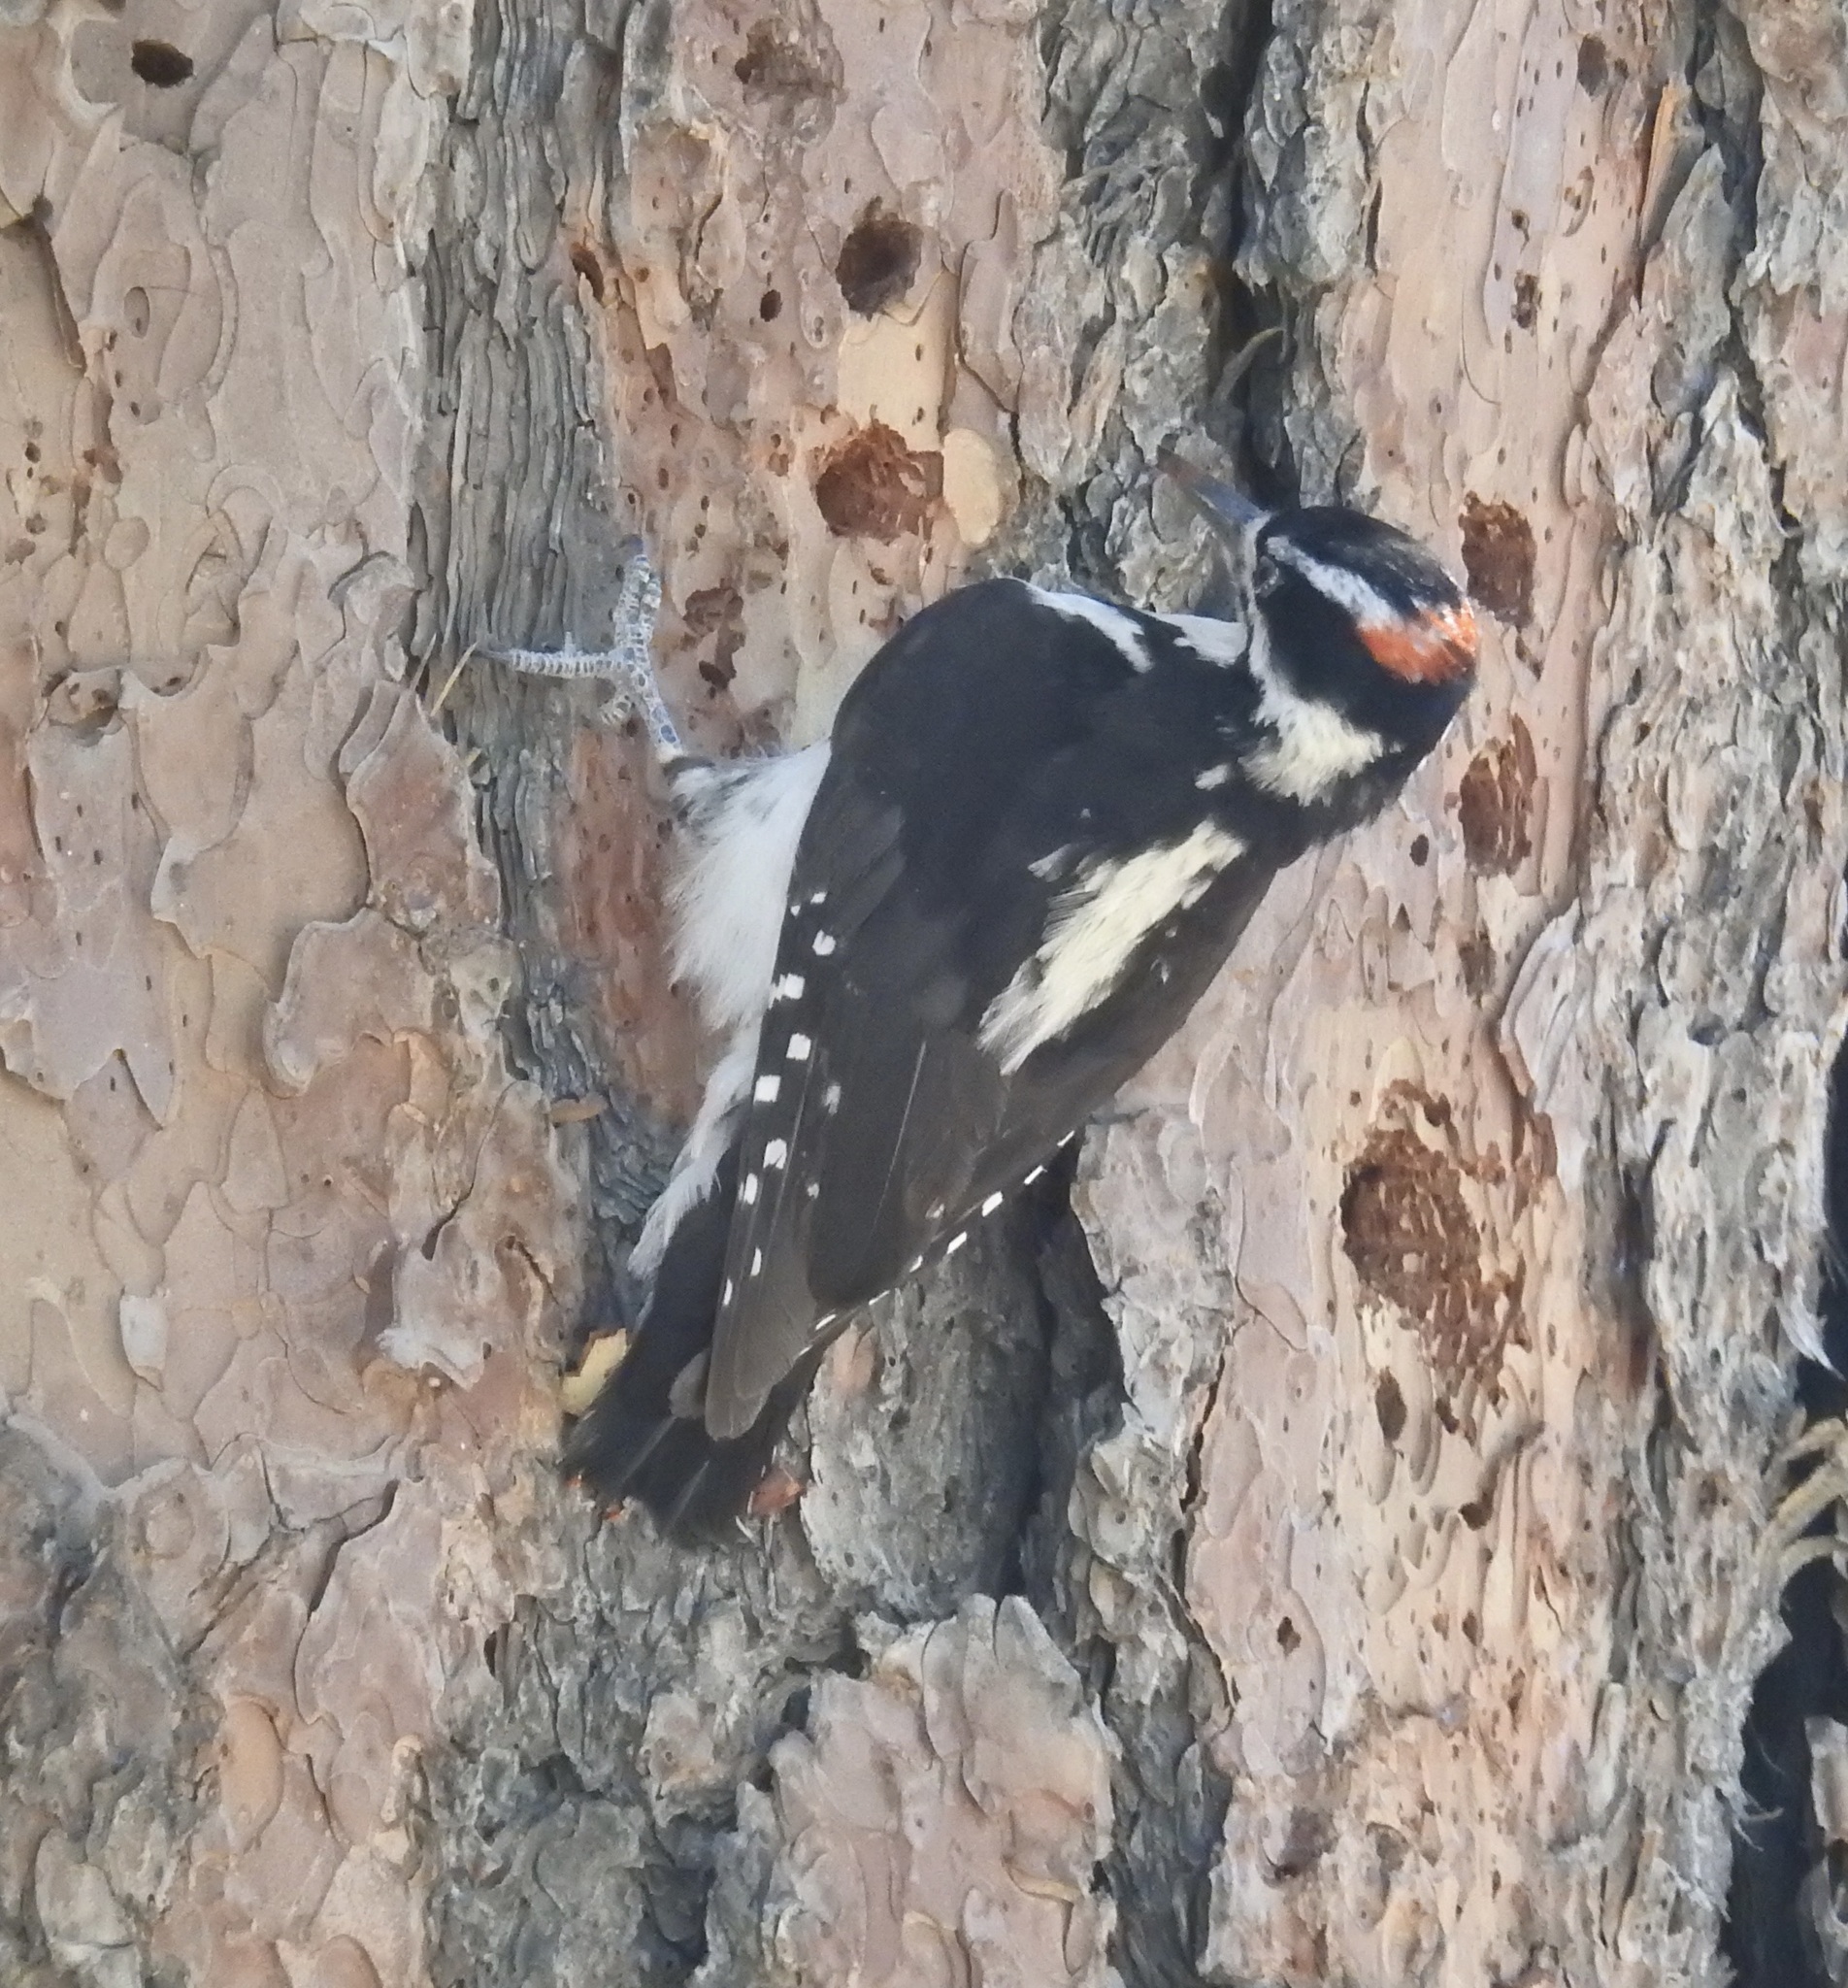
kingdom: Animalia
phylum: Chordata
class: Aves
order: Piciformes
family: Picidae
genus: Leuconotopicus
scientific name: Leuconotopicus villosus
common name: Hairy woodpecker
